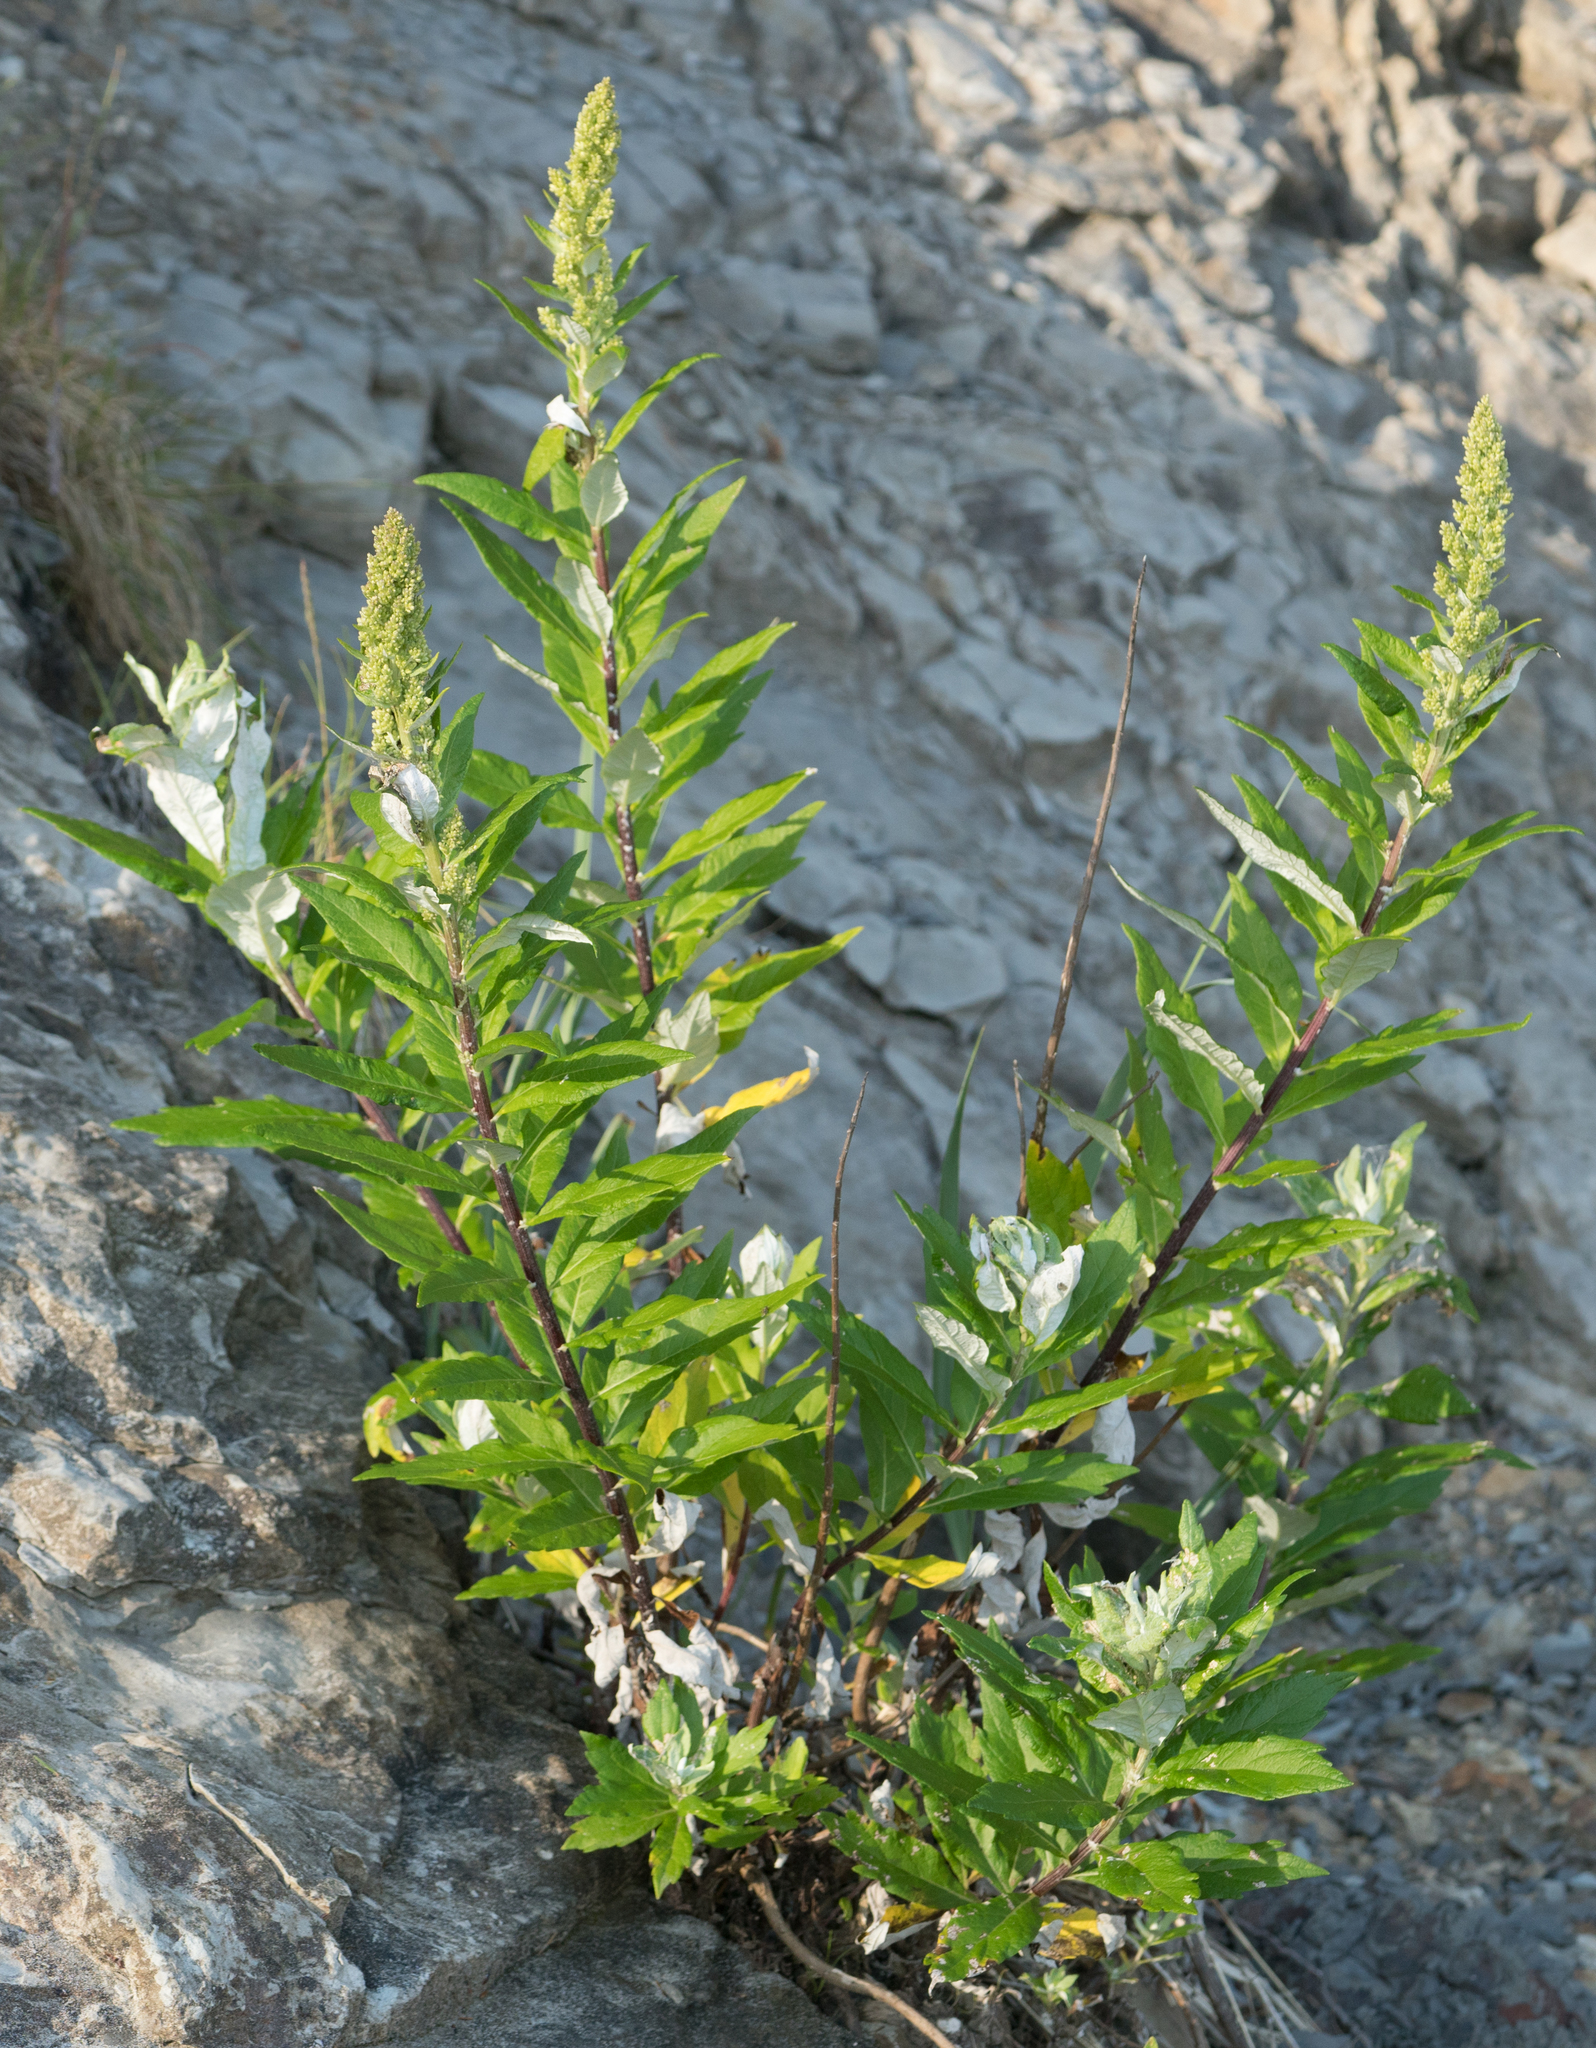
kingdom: Plantae
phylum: Tracheophyta
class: Magnoliopsida
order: Asterales
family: Asteraceae
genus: Artemisia
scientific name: Artemisia suksdorfii
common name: Suksdorf sagewort
